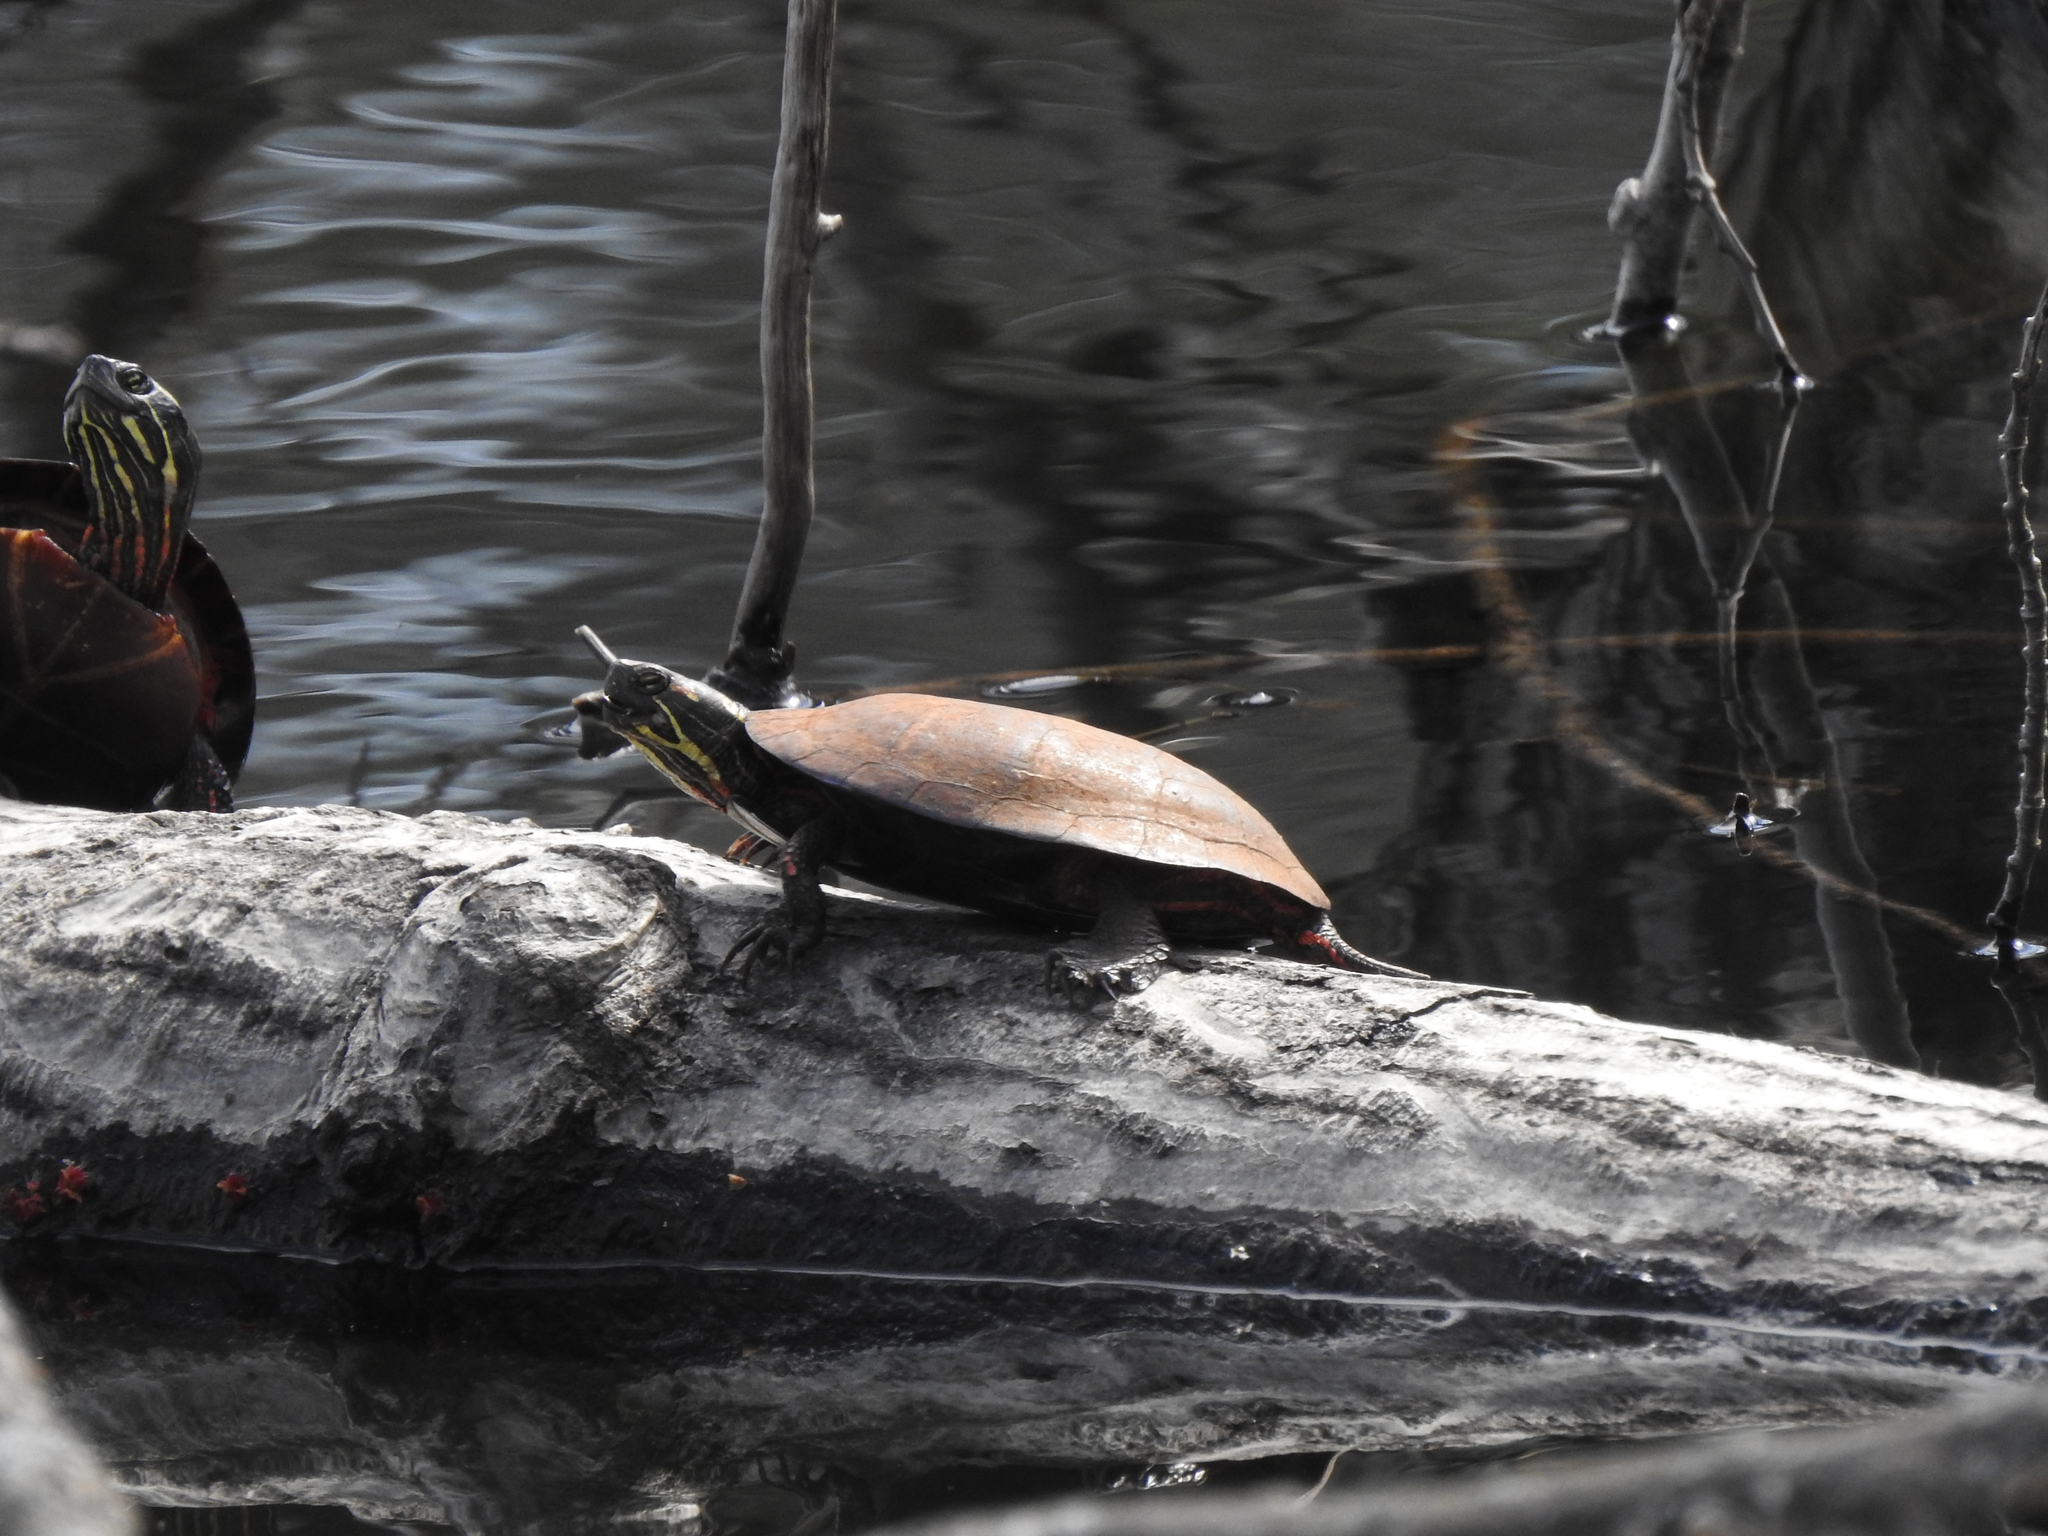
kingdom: Animalia
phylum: Chordata
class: Testudines
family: Emydidae
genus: Chrysemys
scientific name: Chrysemys picta
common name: Painted turtle
